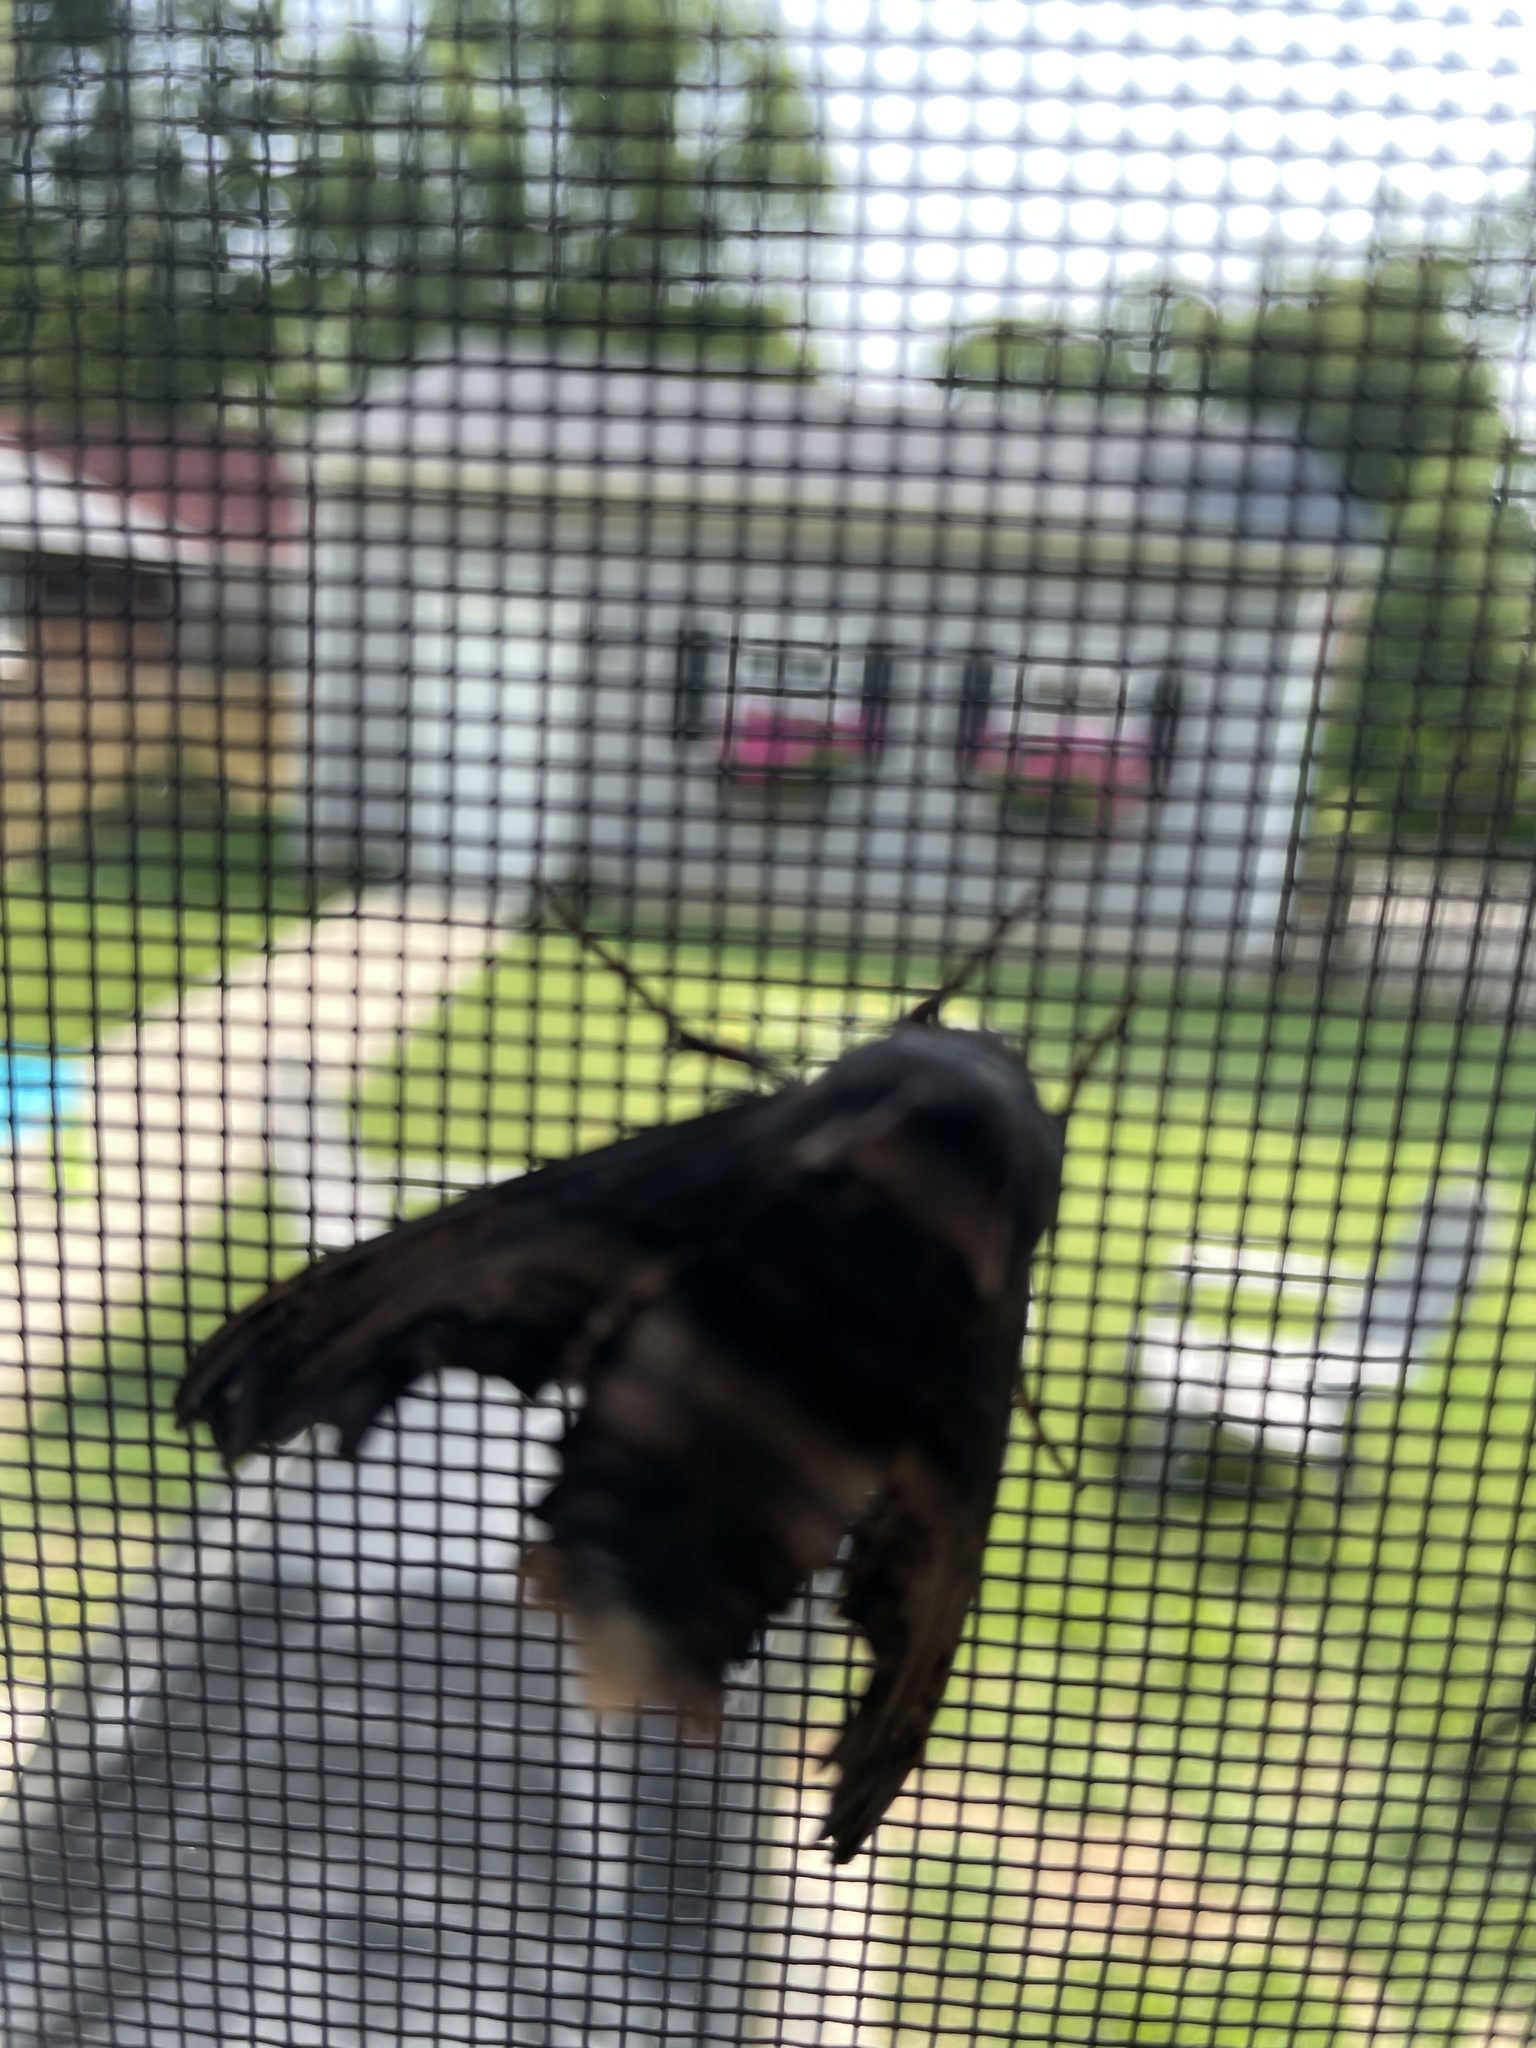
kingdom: Animalia
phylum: Arthropoda
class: Insecta
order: Lepidoptera
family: Sphingidae
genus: Sphecodina
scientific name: Sphecodina abbottii
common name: Abbott's sphinx
